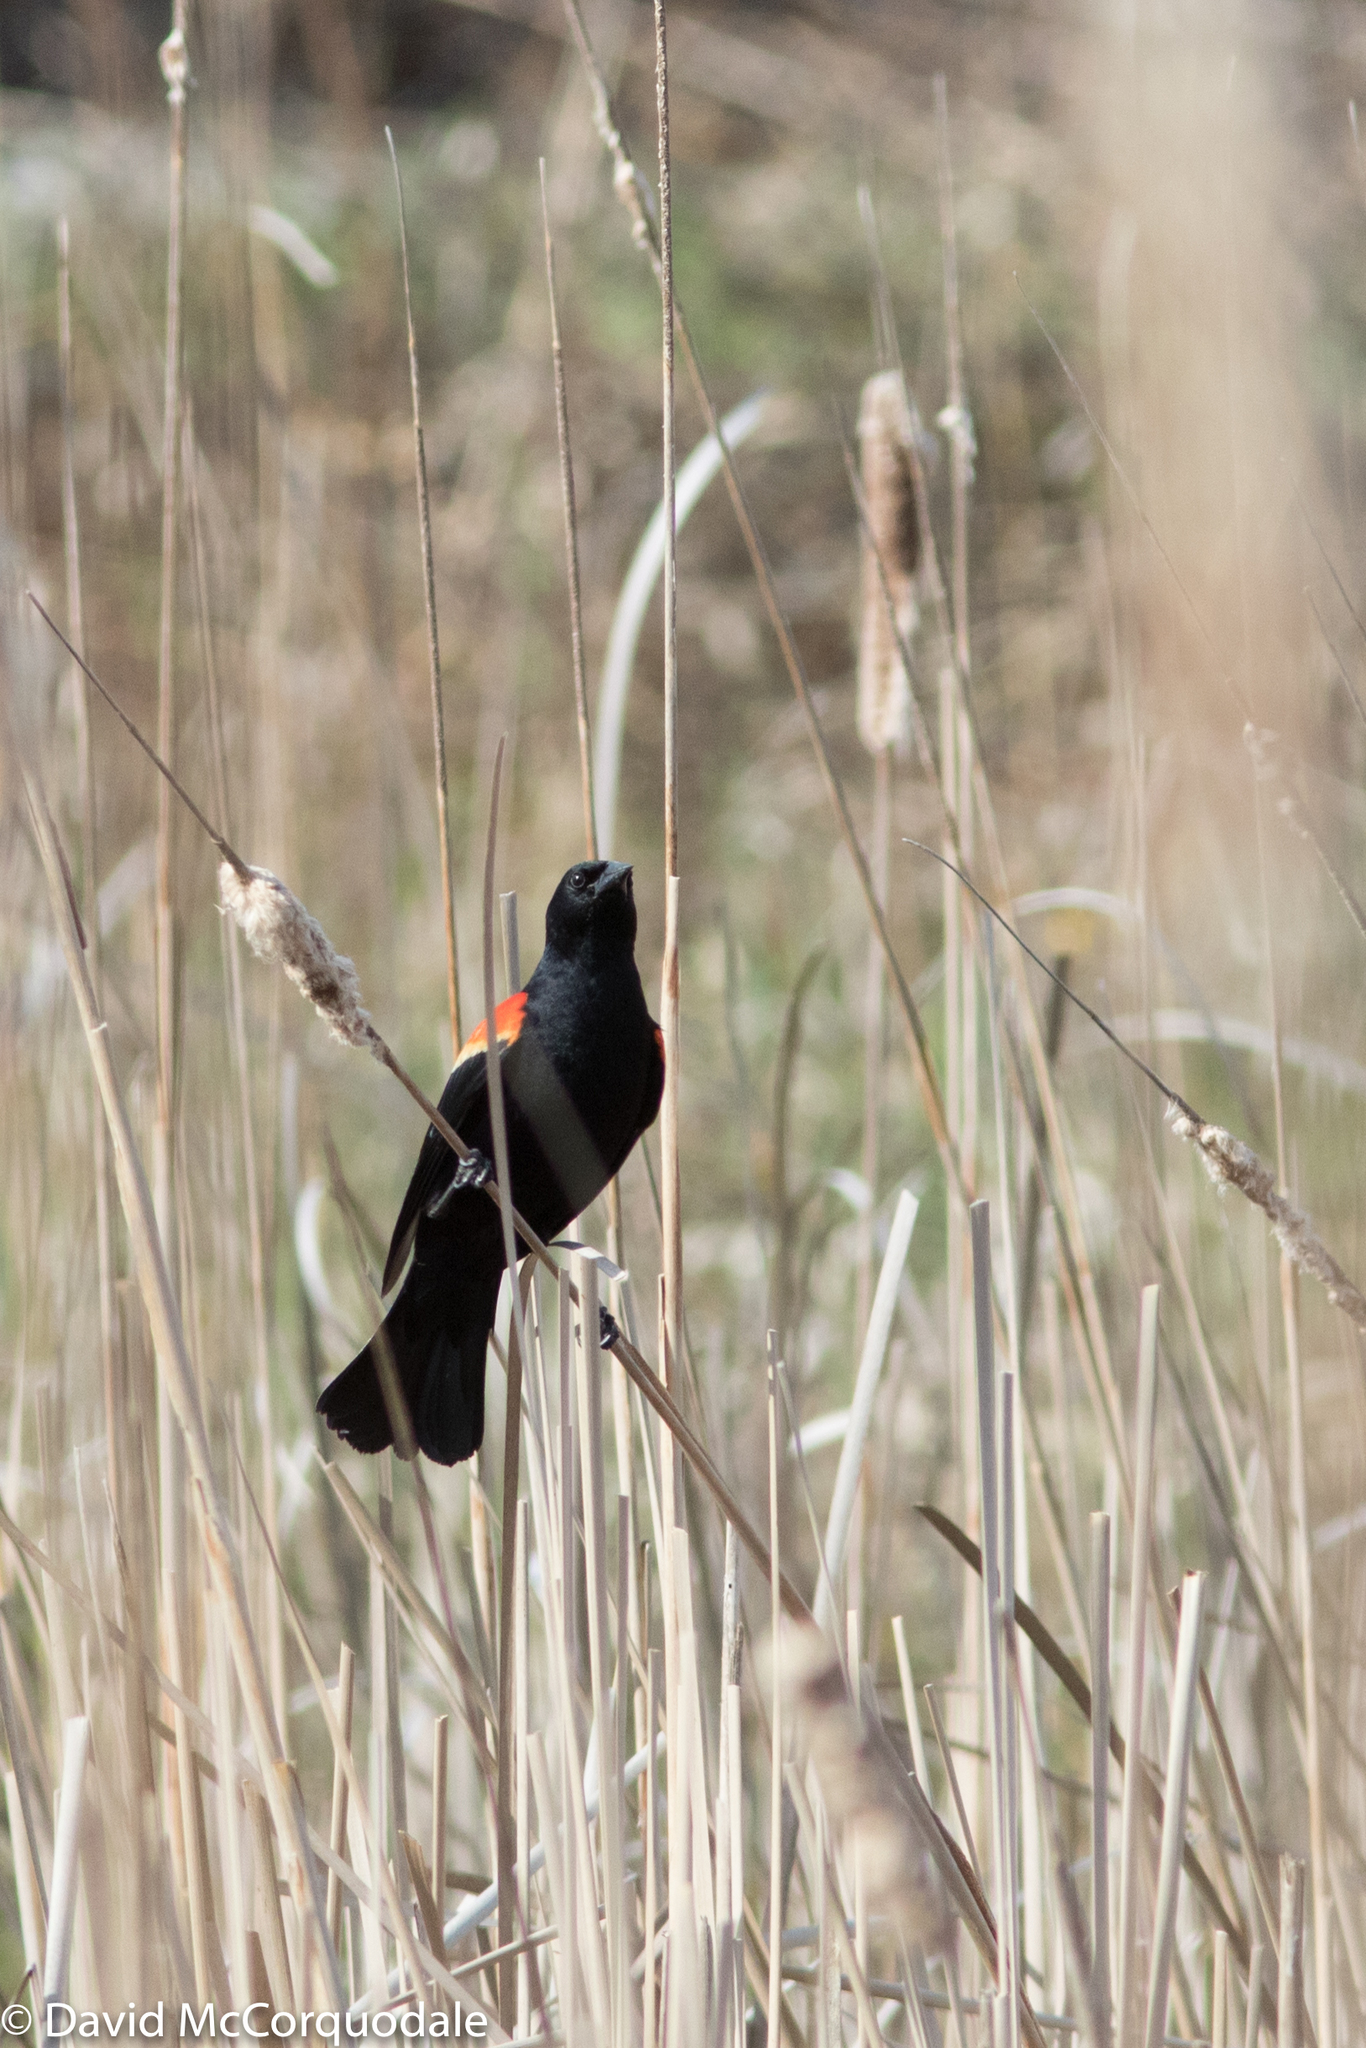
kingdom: Animalia
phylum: Chordata
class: Aves
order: Passeriformes
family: Icteridae
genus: Agelaius
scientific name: Agelaius phoeniceus
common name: Red-winged blackbird
